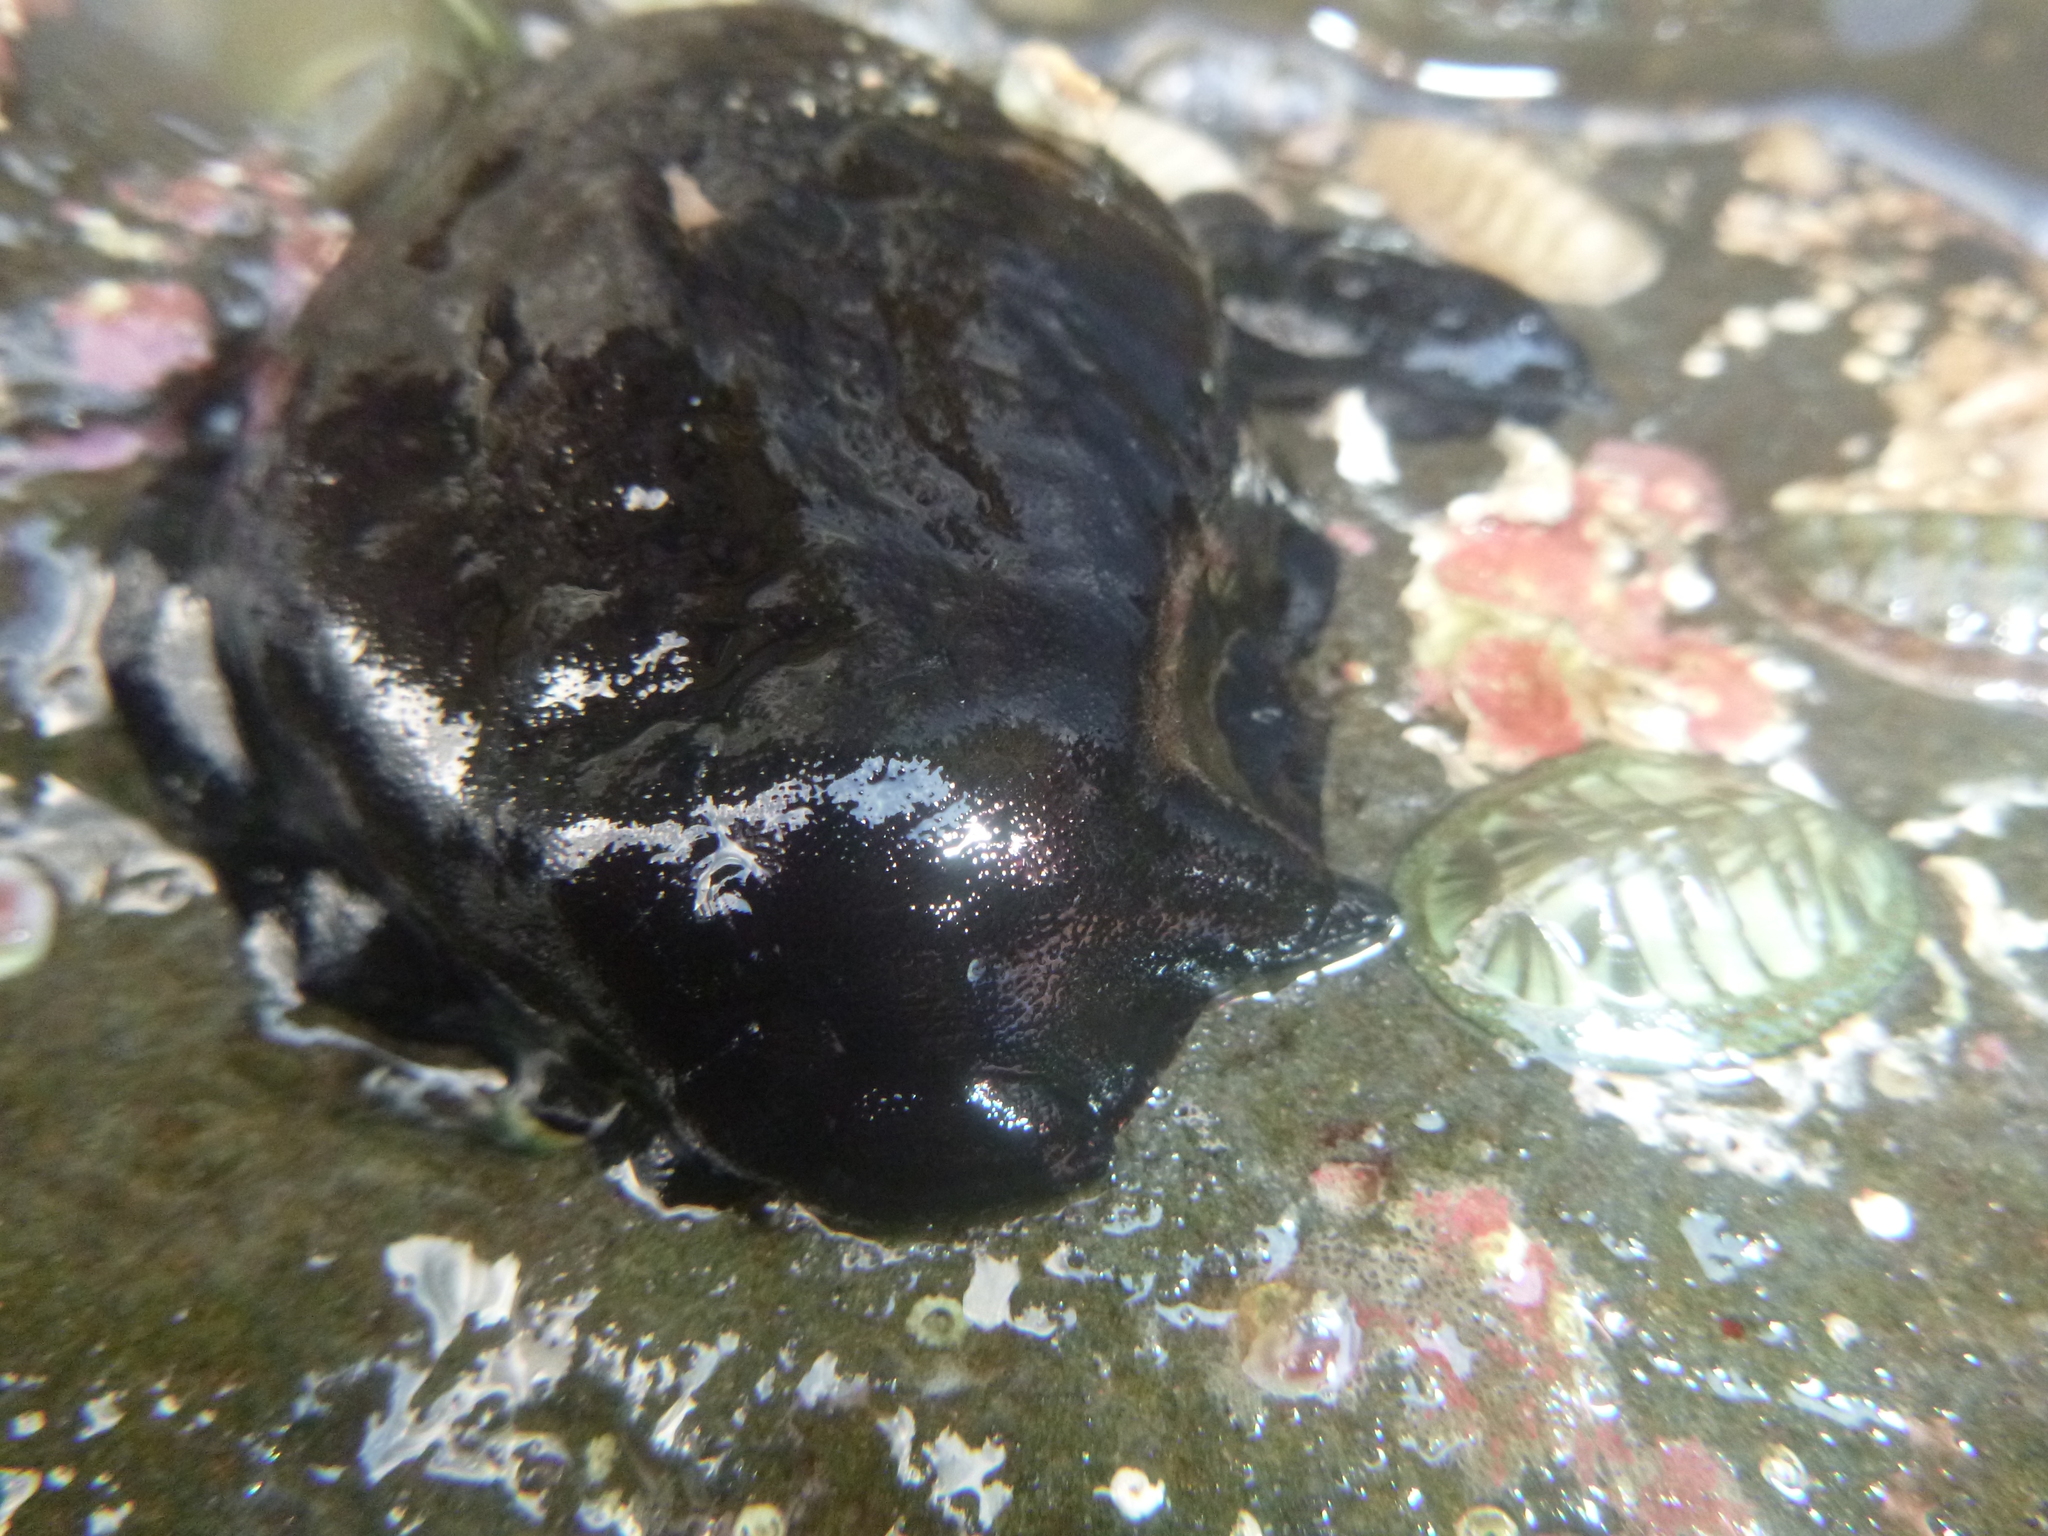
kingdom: Animalia
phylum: Mollusca
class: Gastropoda
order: Lepetellida
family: Fissurellidae
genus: Scutus
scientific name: Scutus breviculus
